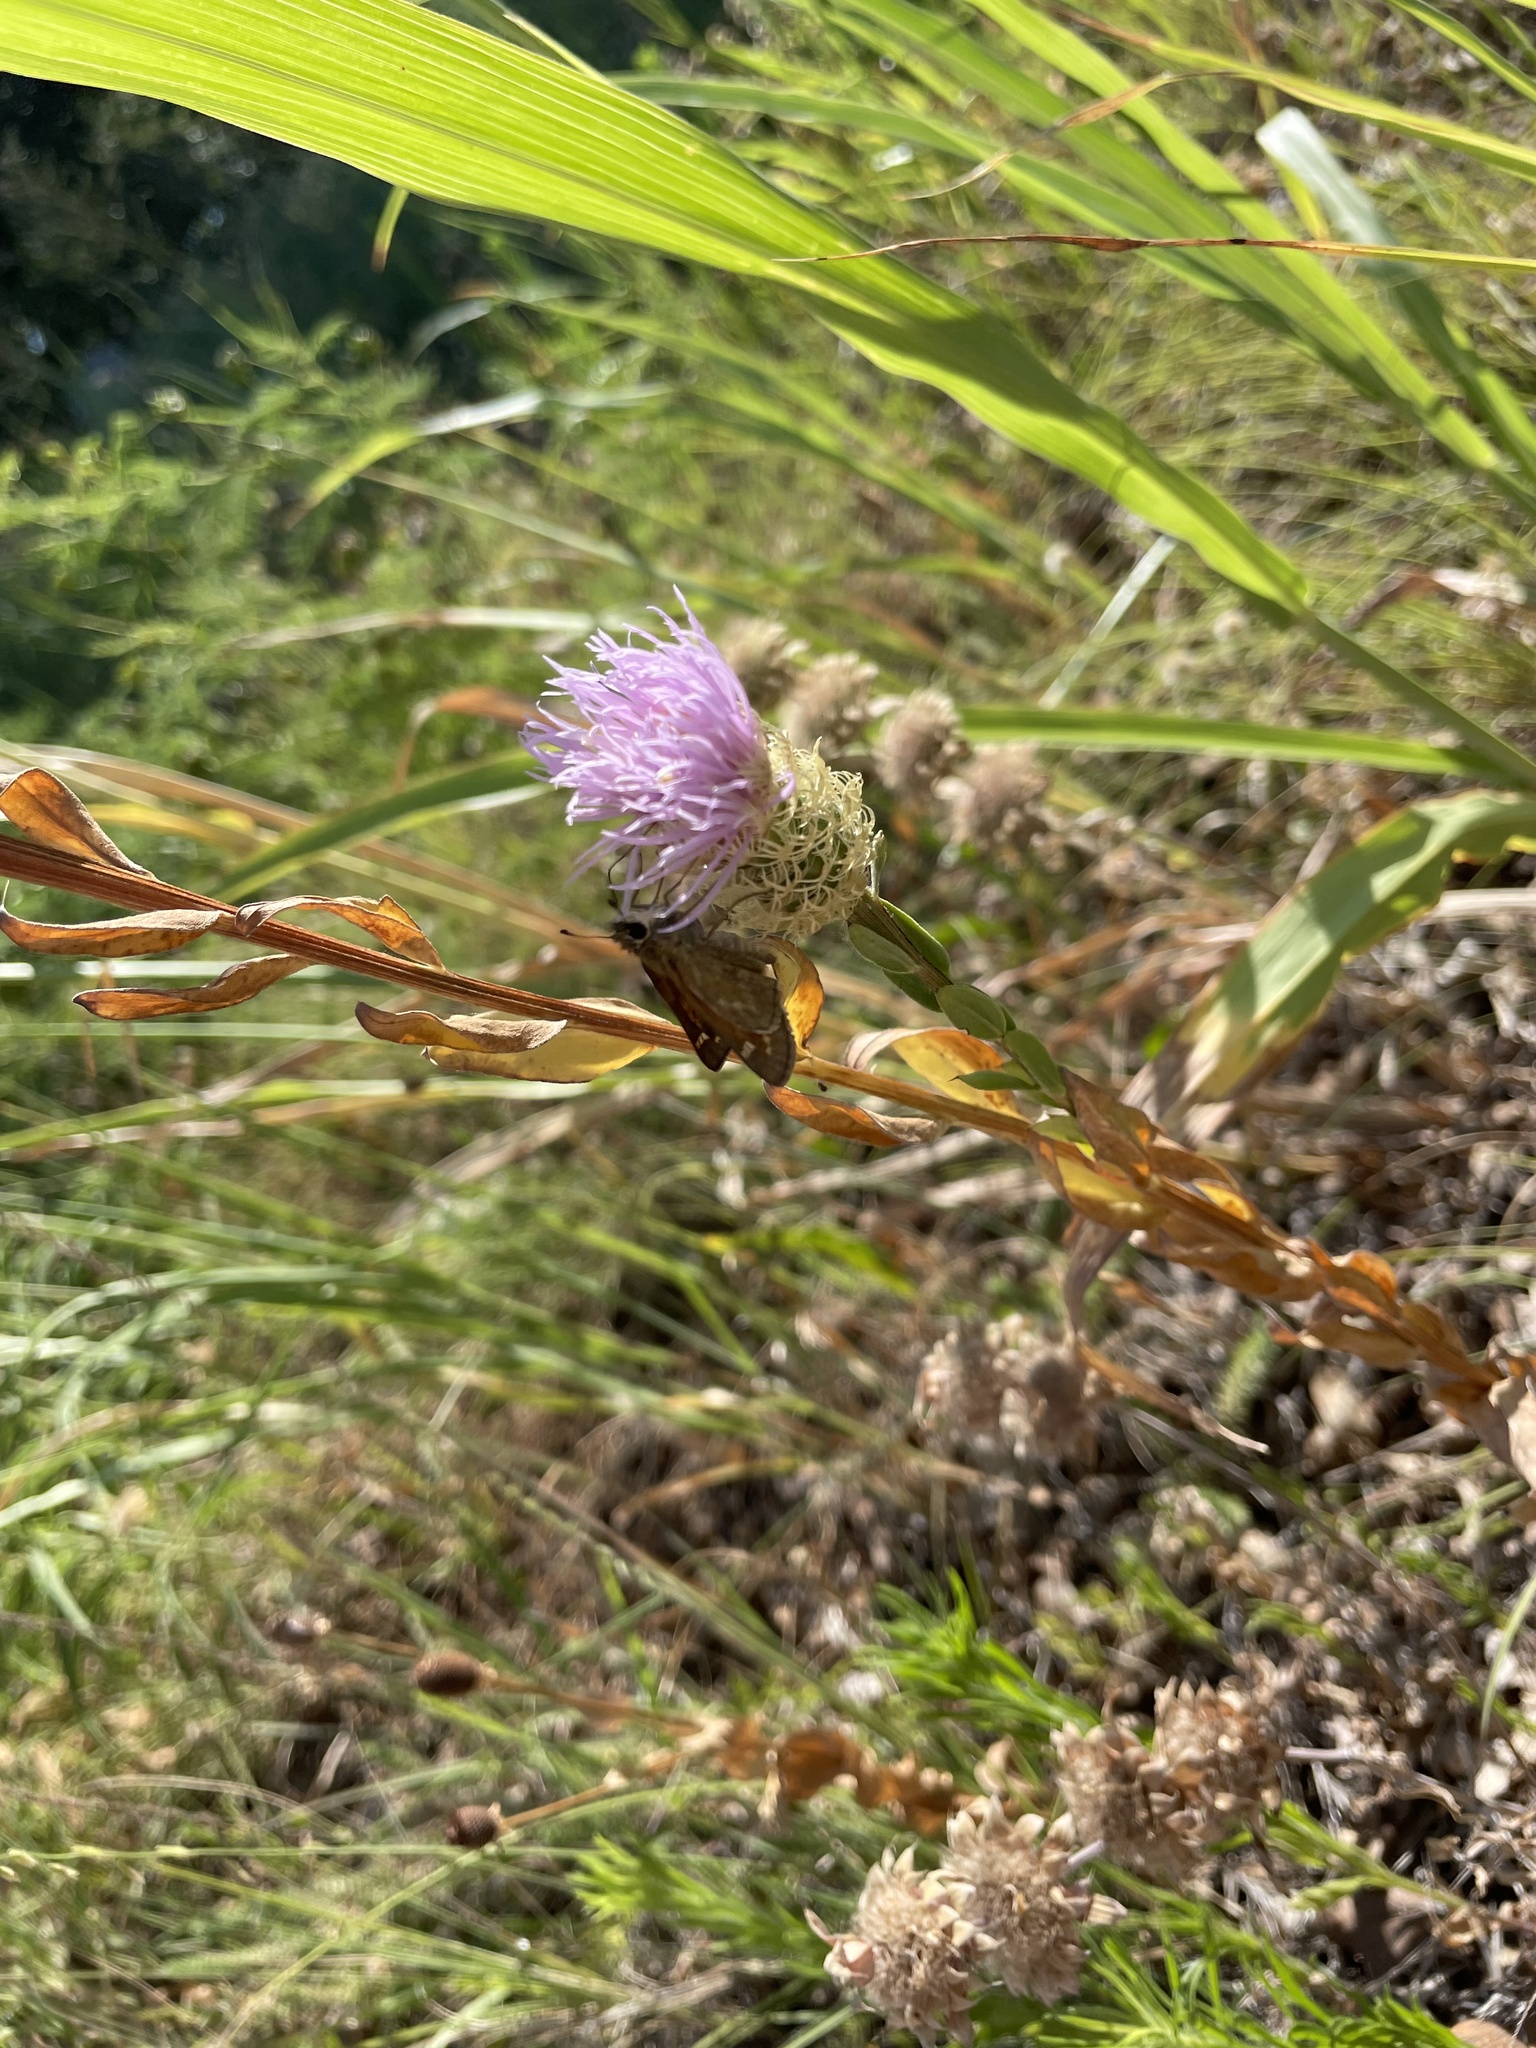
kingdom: Plantae
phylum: Tracheophyta
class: Magnoliopsida
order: Asterales
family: Asteraceae
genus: Plectocephalus
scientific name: Plectocephalus americanus
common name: American basket-flower
